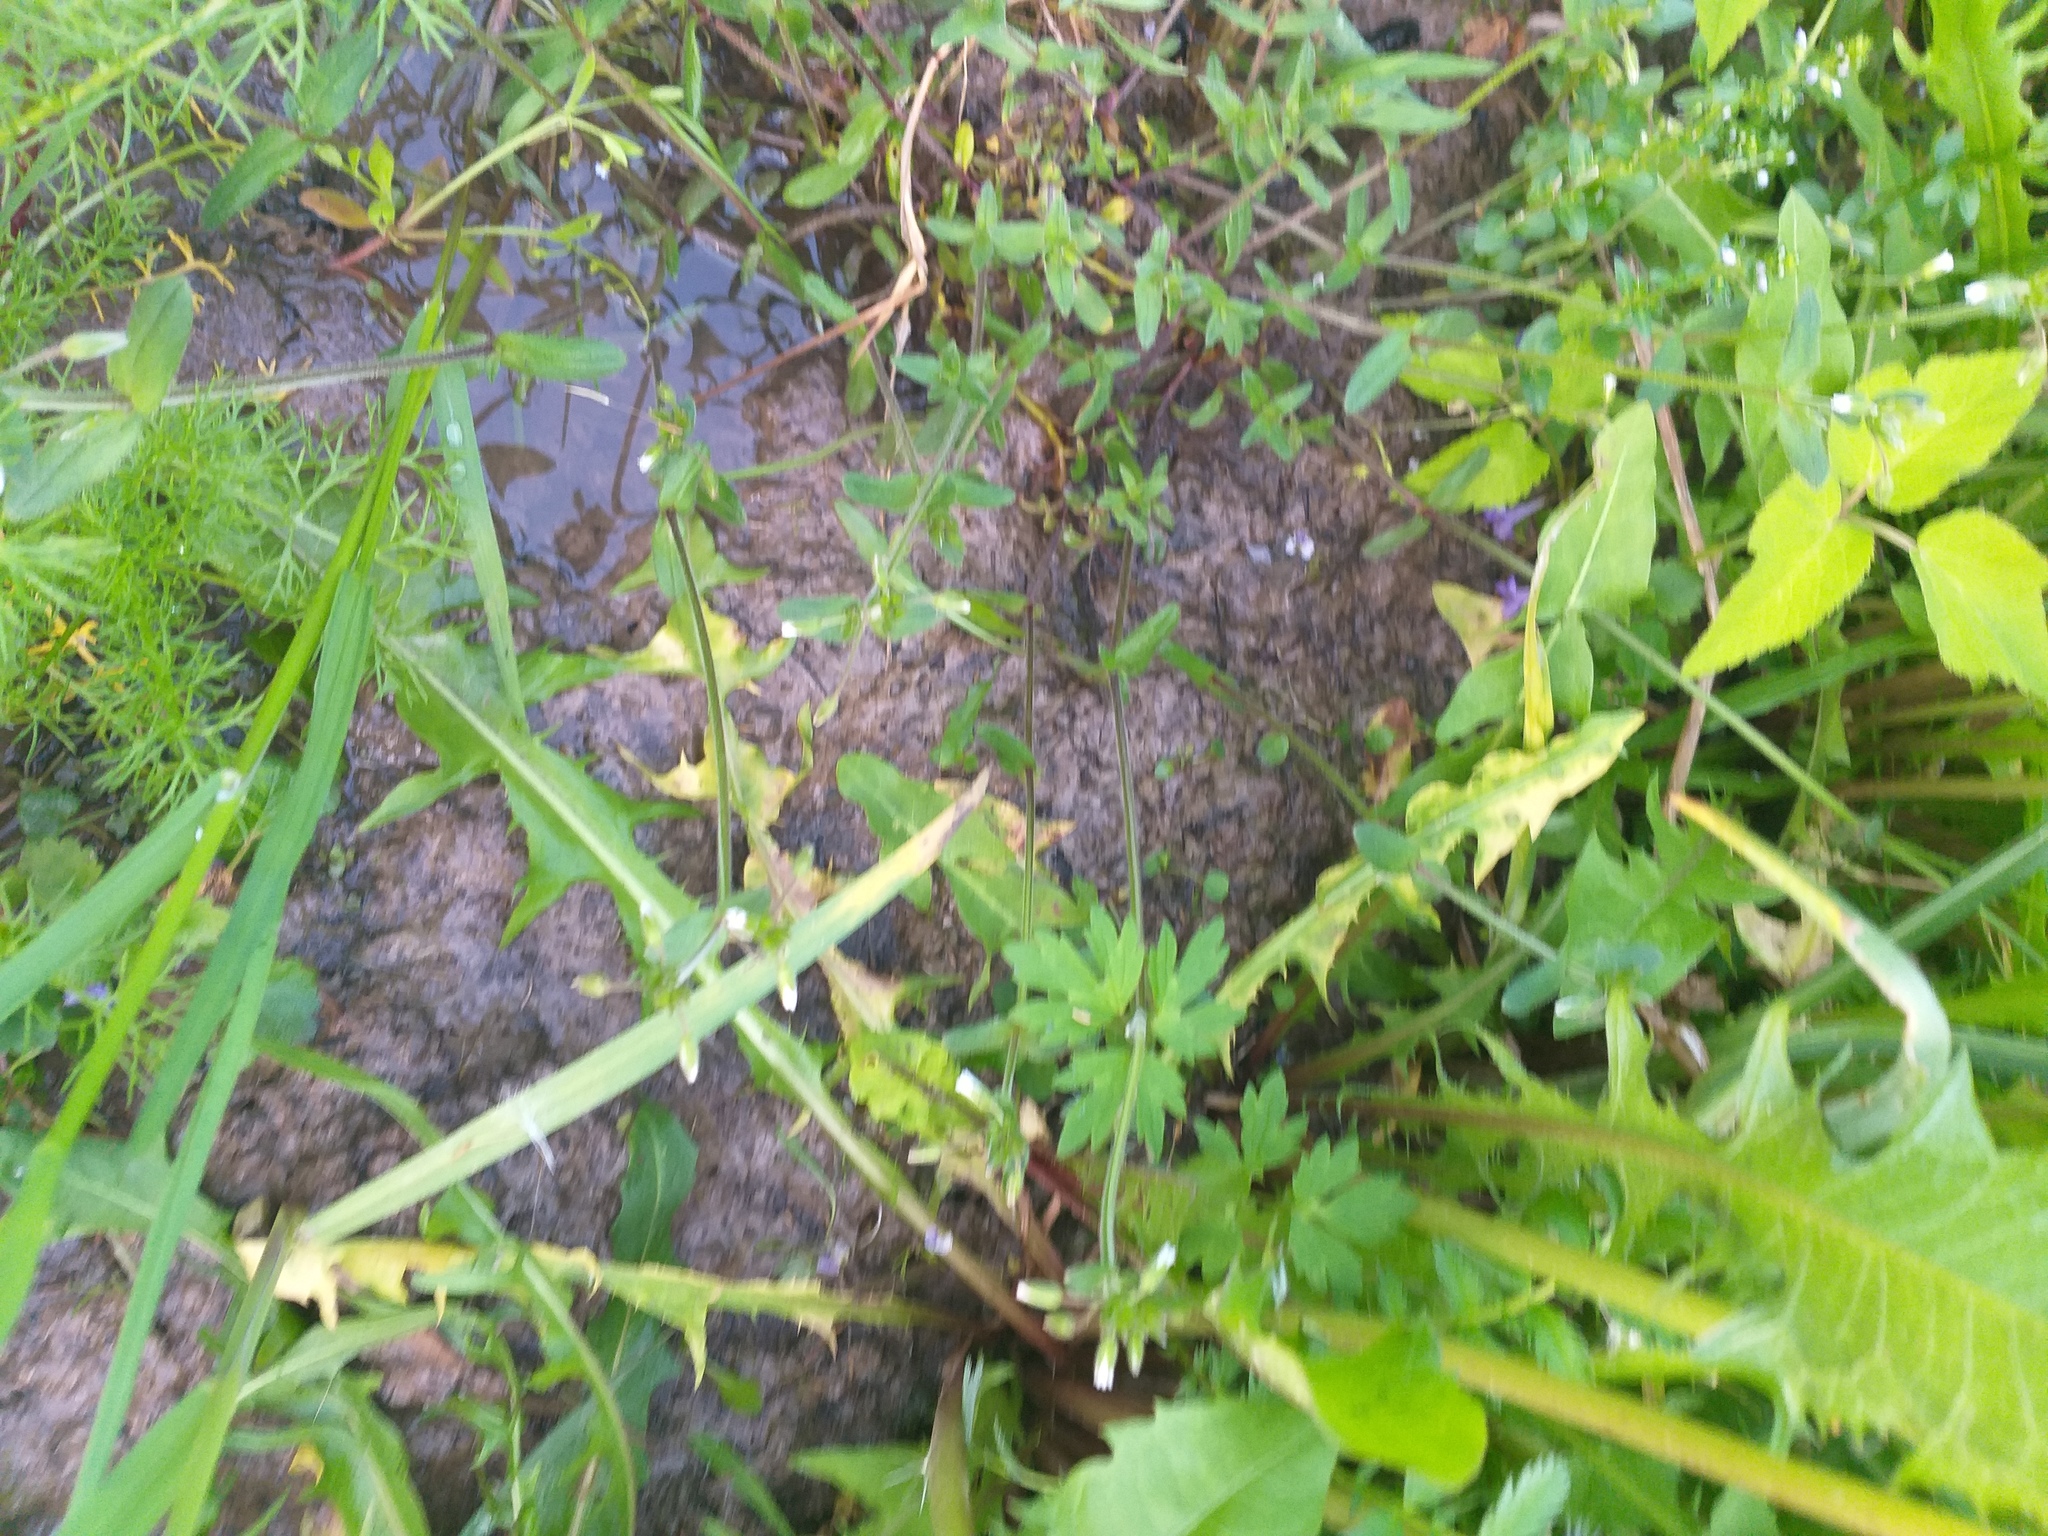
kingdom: Plantae
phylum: Tracheophyta
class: Magnoliopsida
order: Caryophyllales
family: Caryophyllaceae
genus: Cerastium
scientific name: Cerastium holosteoides
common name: Big chickweed
